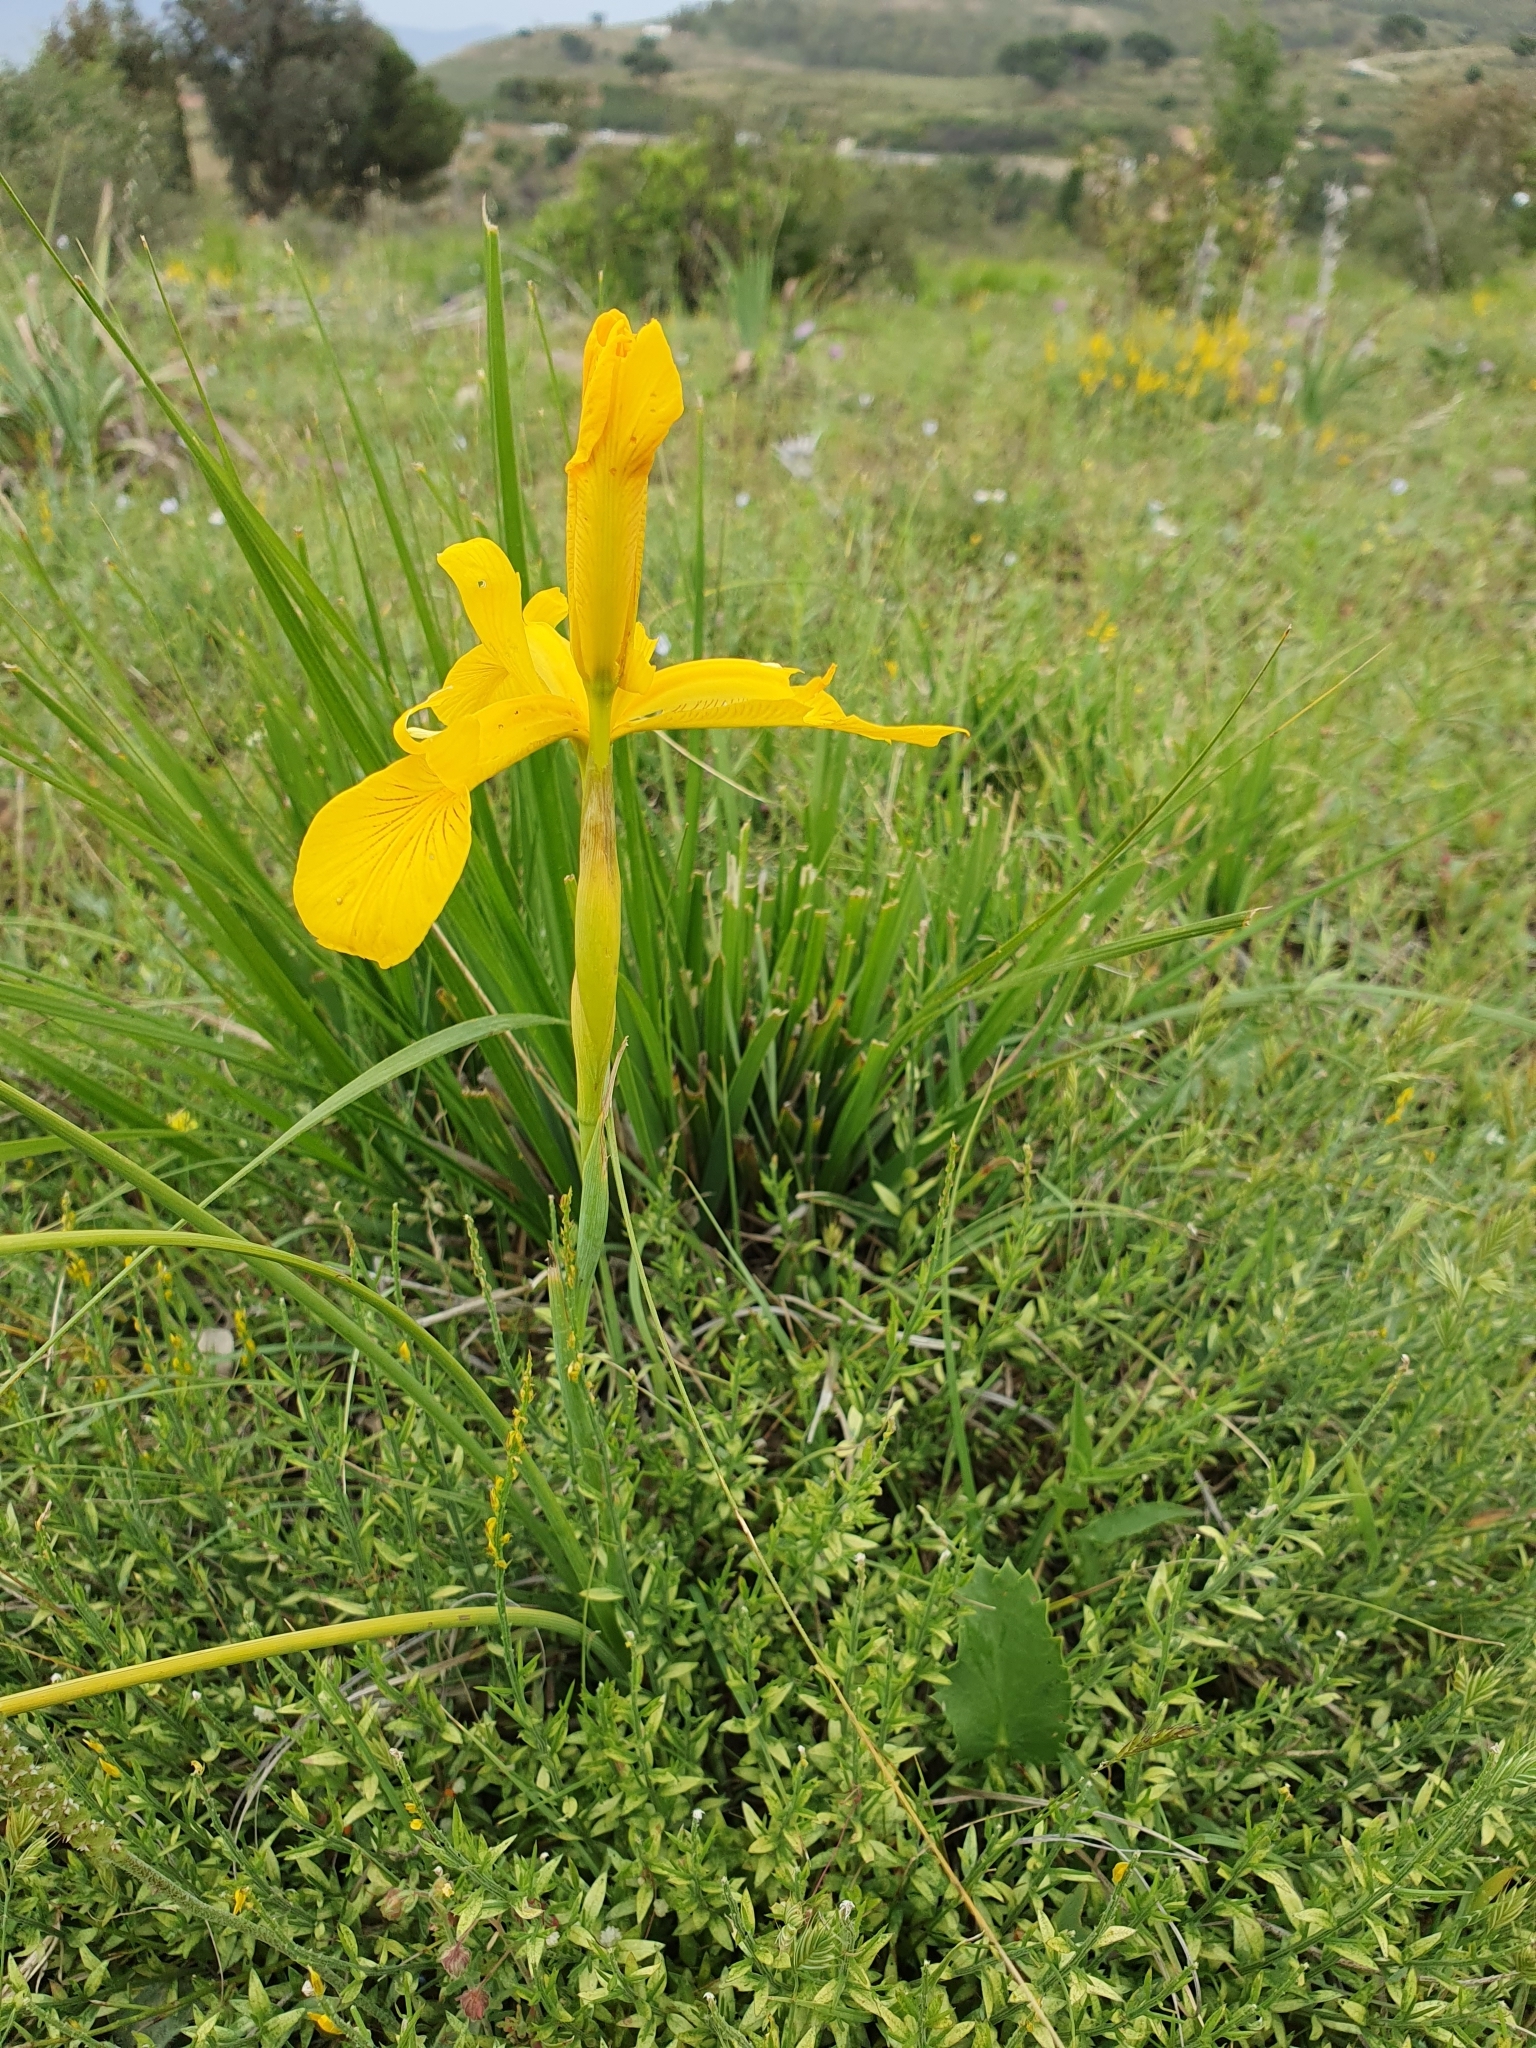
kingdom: Plantae
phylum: Tracheophyta
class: Liliopsida
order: Asparagales
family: Iridaceae
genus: Iris
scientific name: Iris juncea
